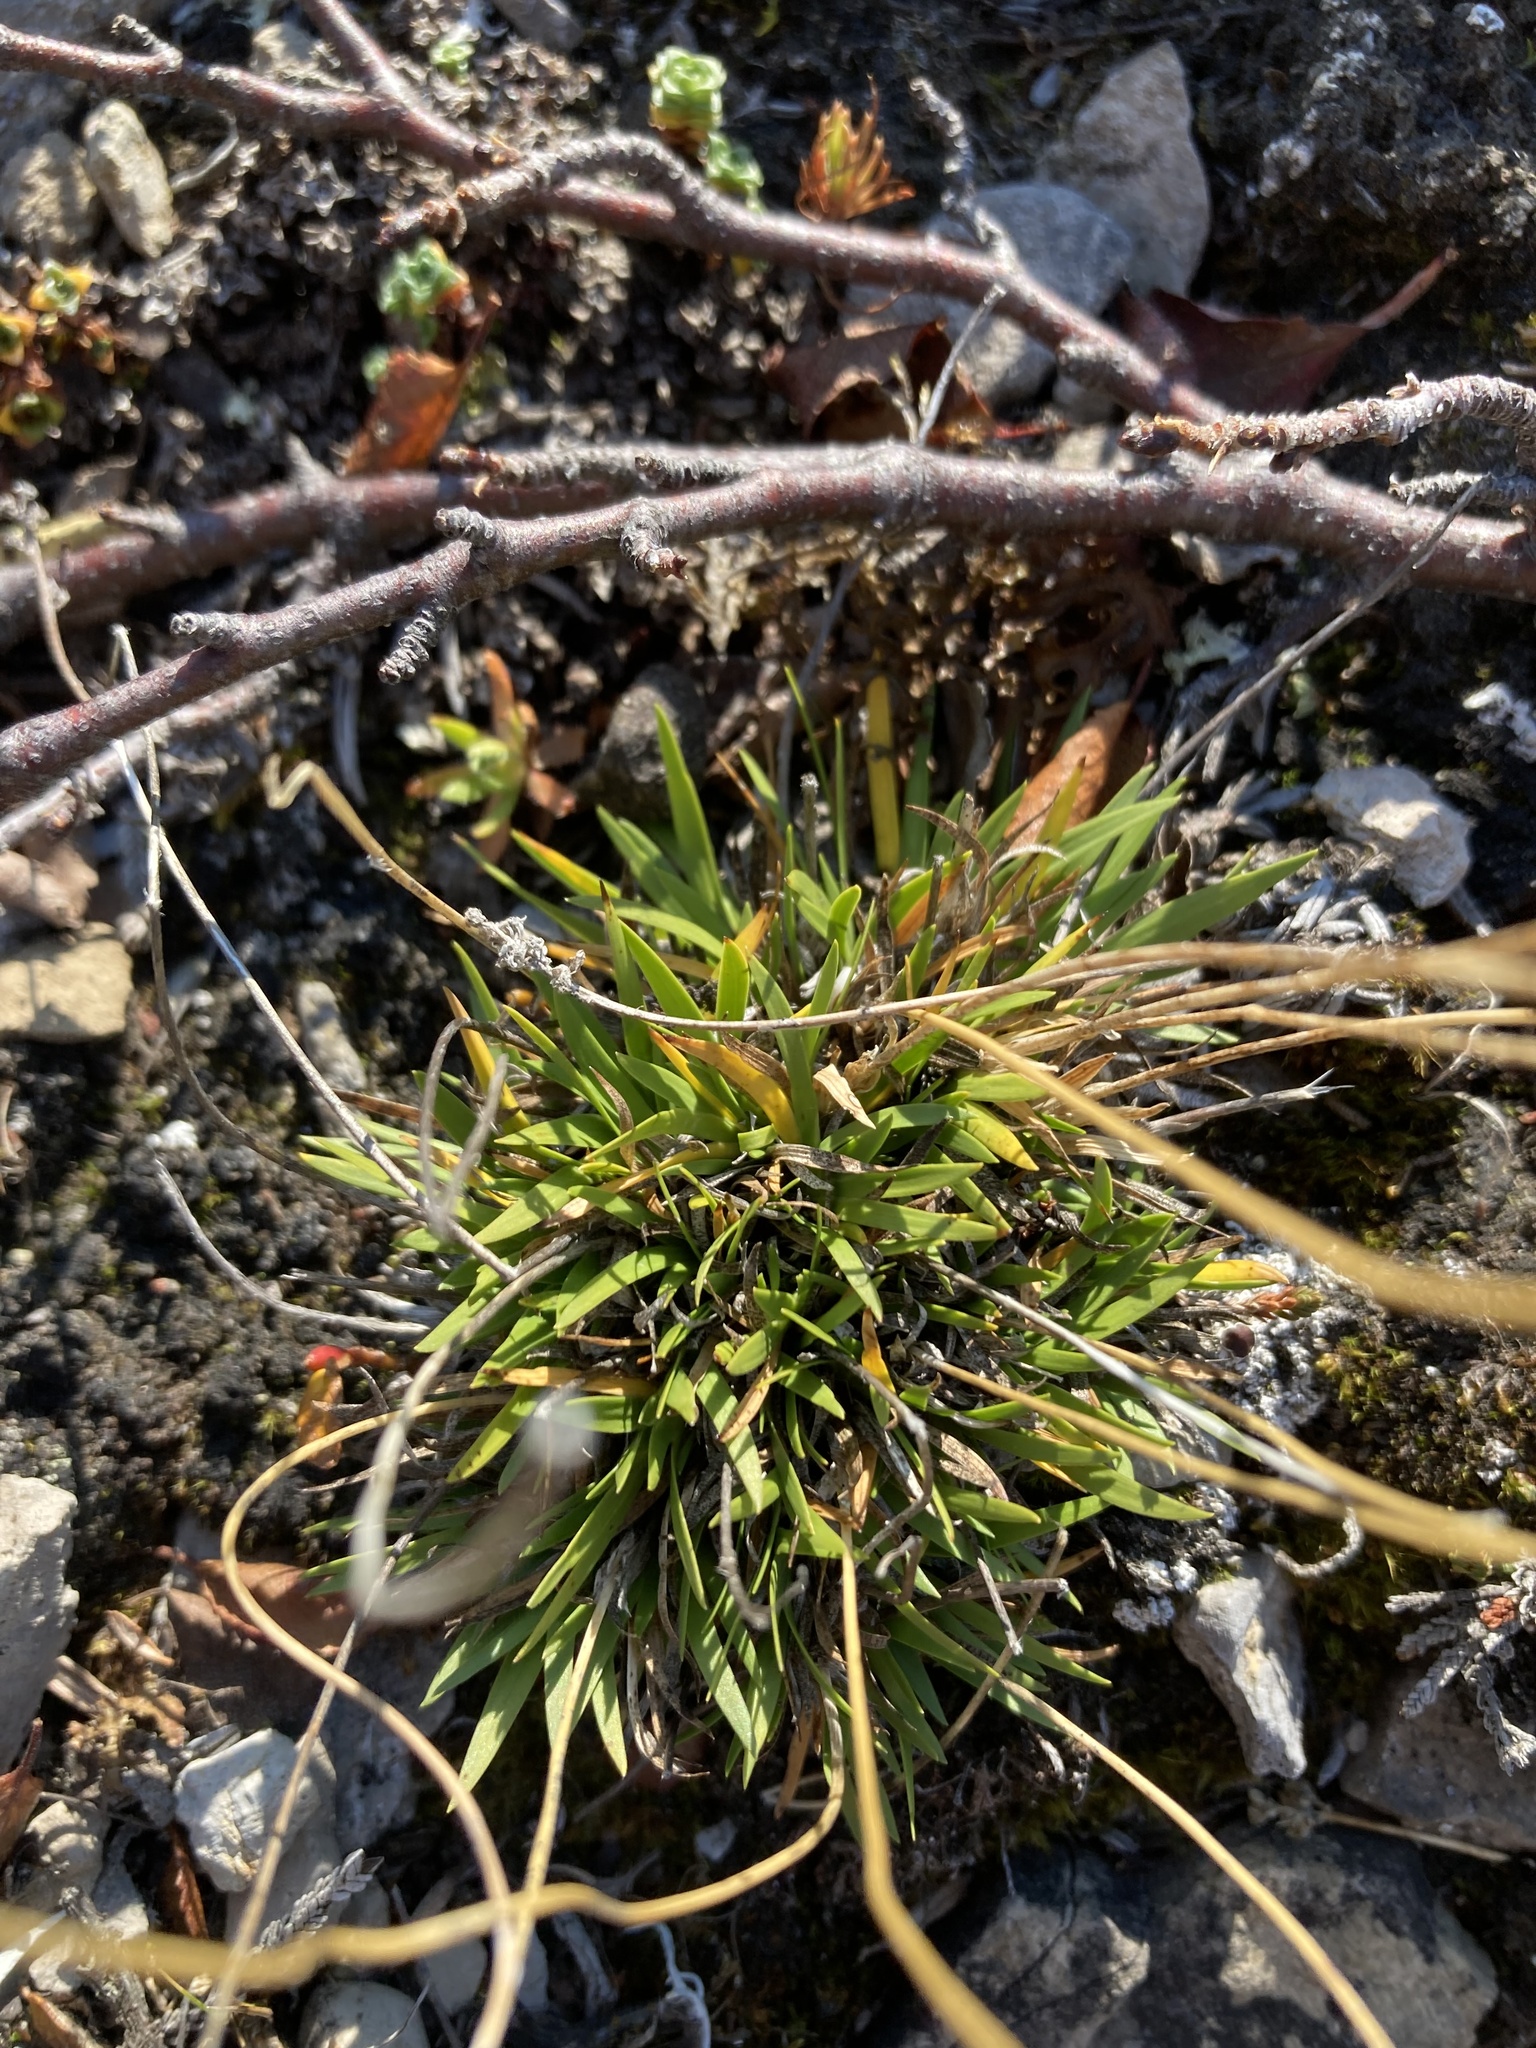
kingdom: Plantae
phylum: Tracheophyta
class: Liliopsida
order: Alismatales
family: Tofieldiaceae
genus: Tofieldia
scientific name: Tofieldia pusilla
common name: Scottish false asphodel
